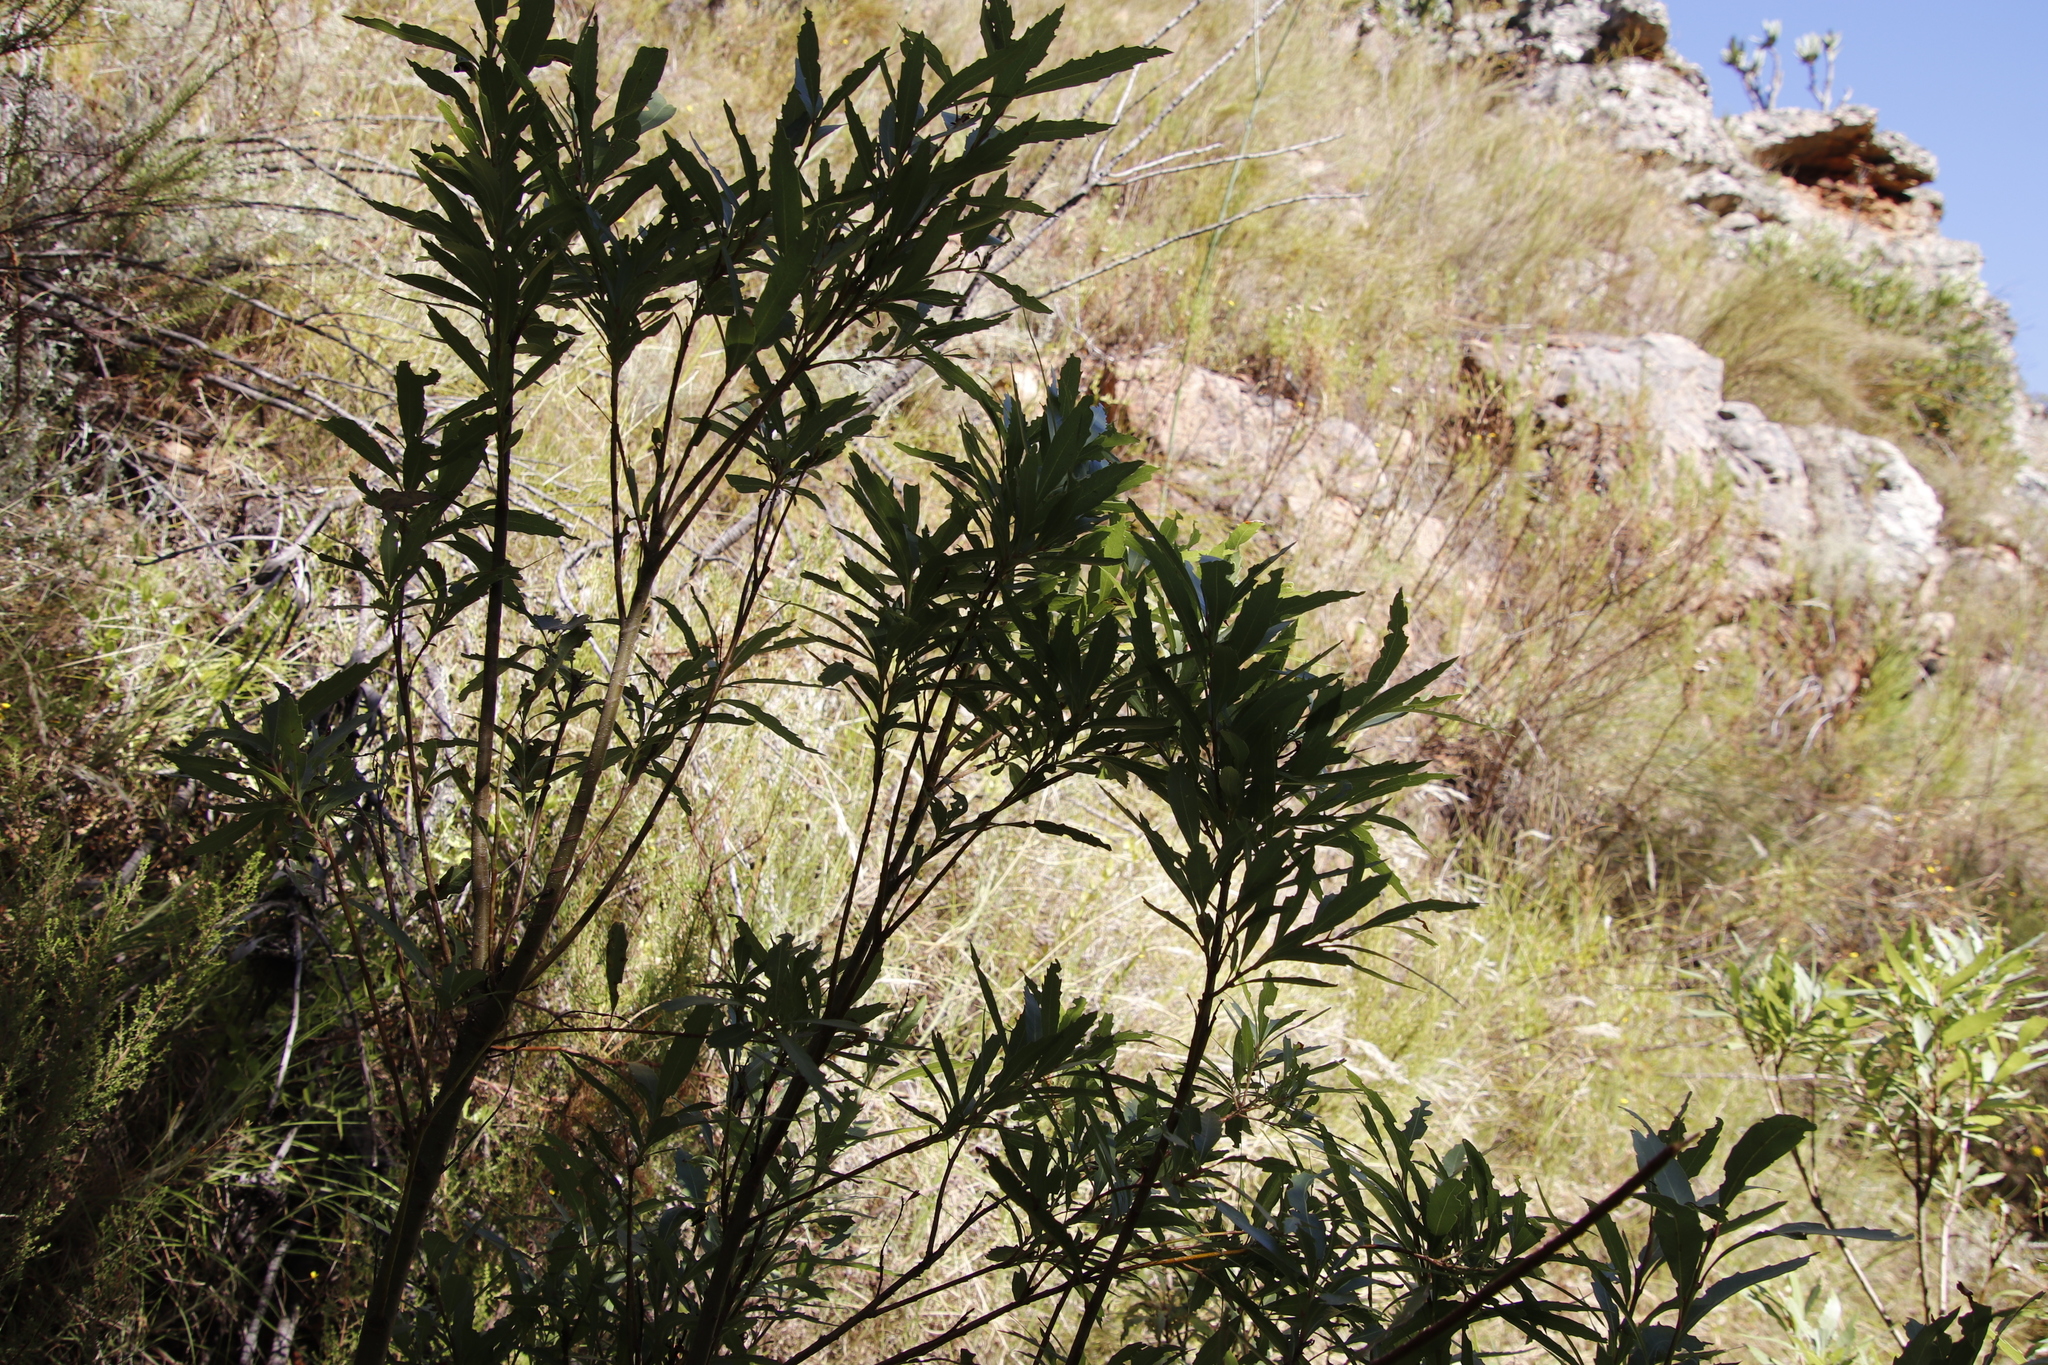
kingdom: Plantae
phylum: Tracheophyta
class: Magnoliopsida
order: Asterales
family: Asteraceae
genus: Brachylaena
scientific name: Brachylaena neriifolia
